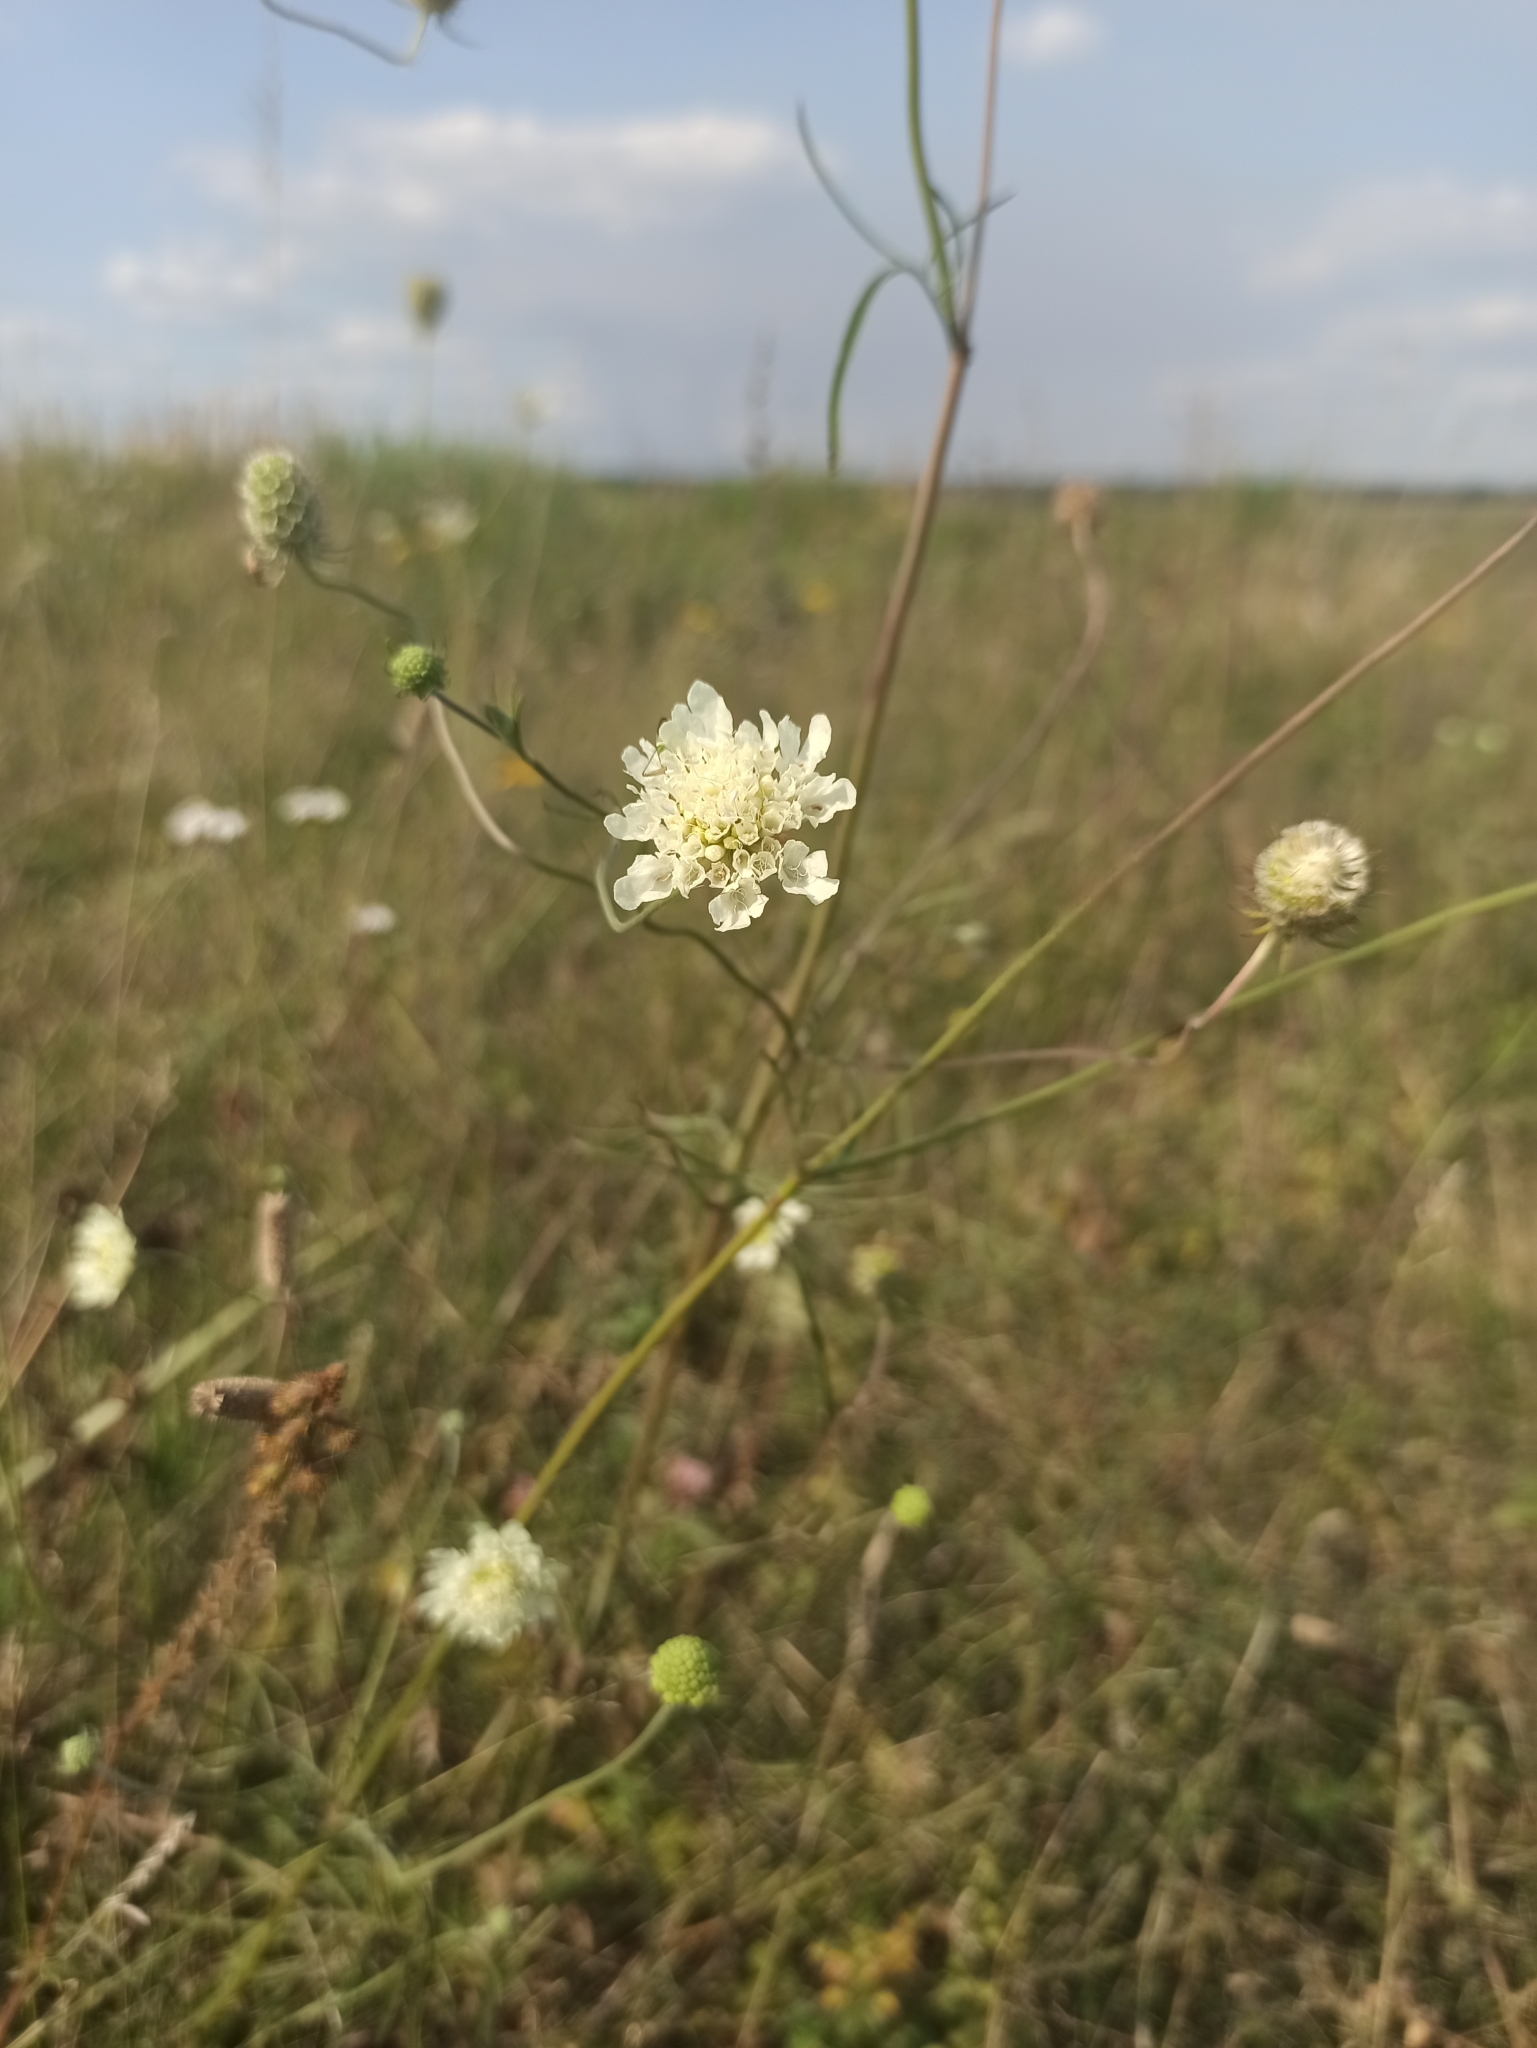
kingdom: Plantae
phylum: Tracheophyta
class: Magnoliopsida
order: Dipsacales
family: Caprifoliaceae
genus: Scabiosa
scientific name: Scabiosa ochroleuca
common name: Cream pincushions
